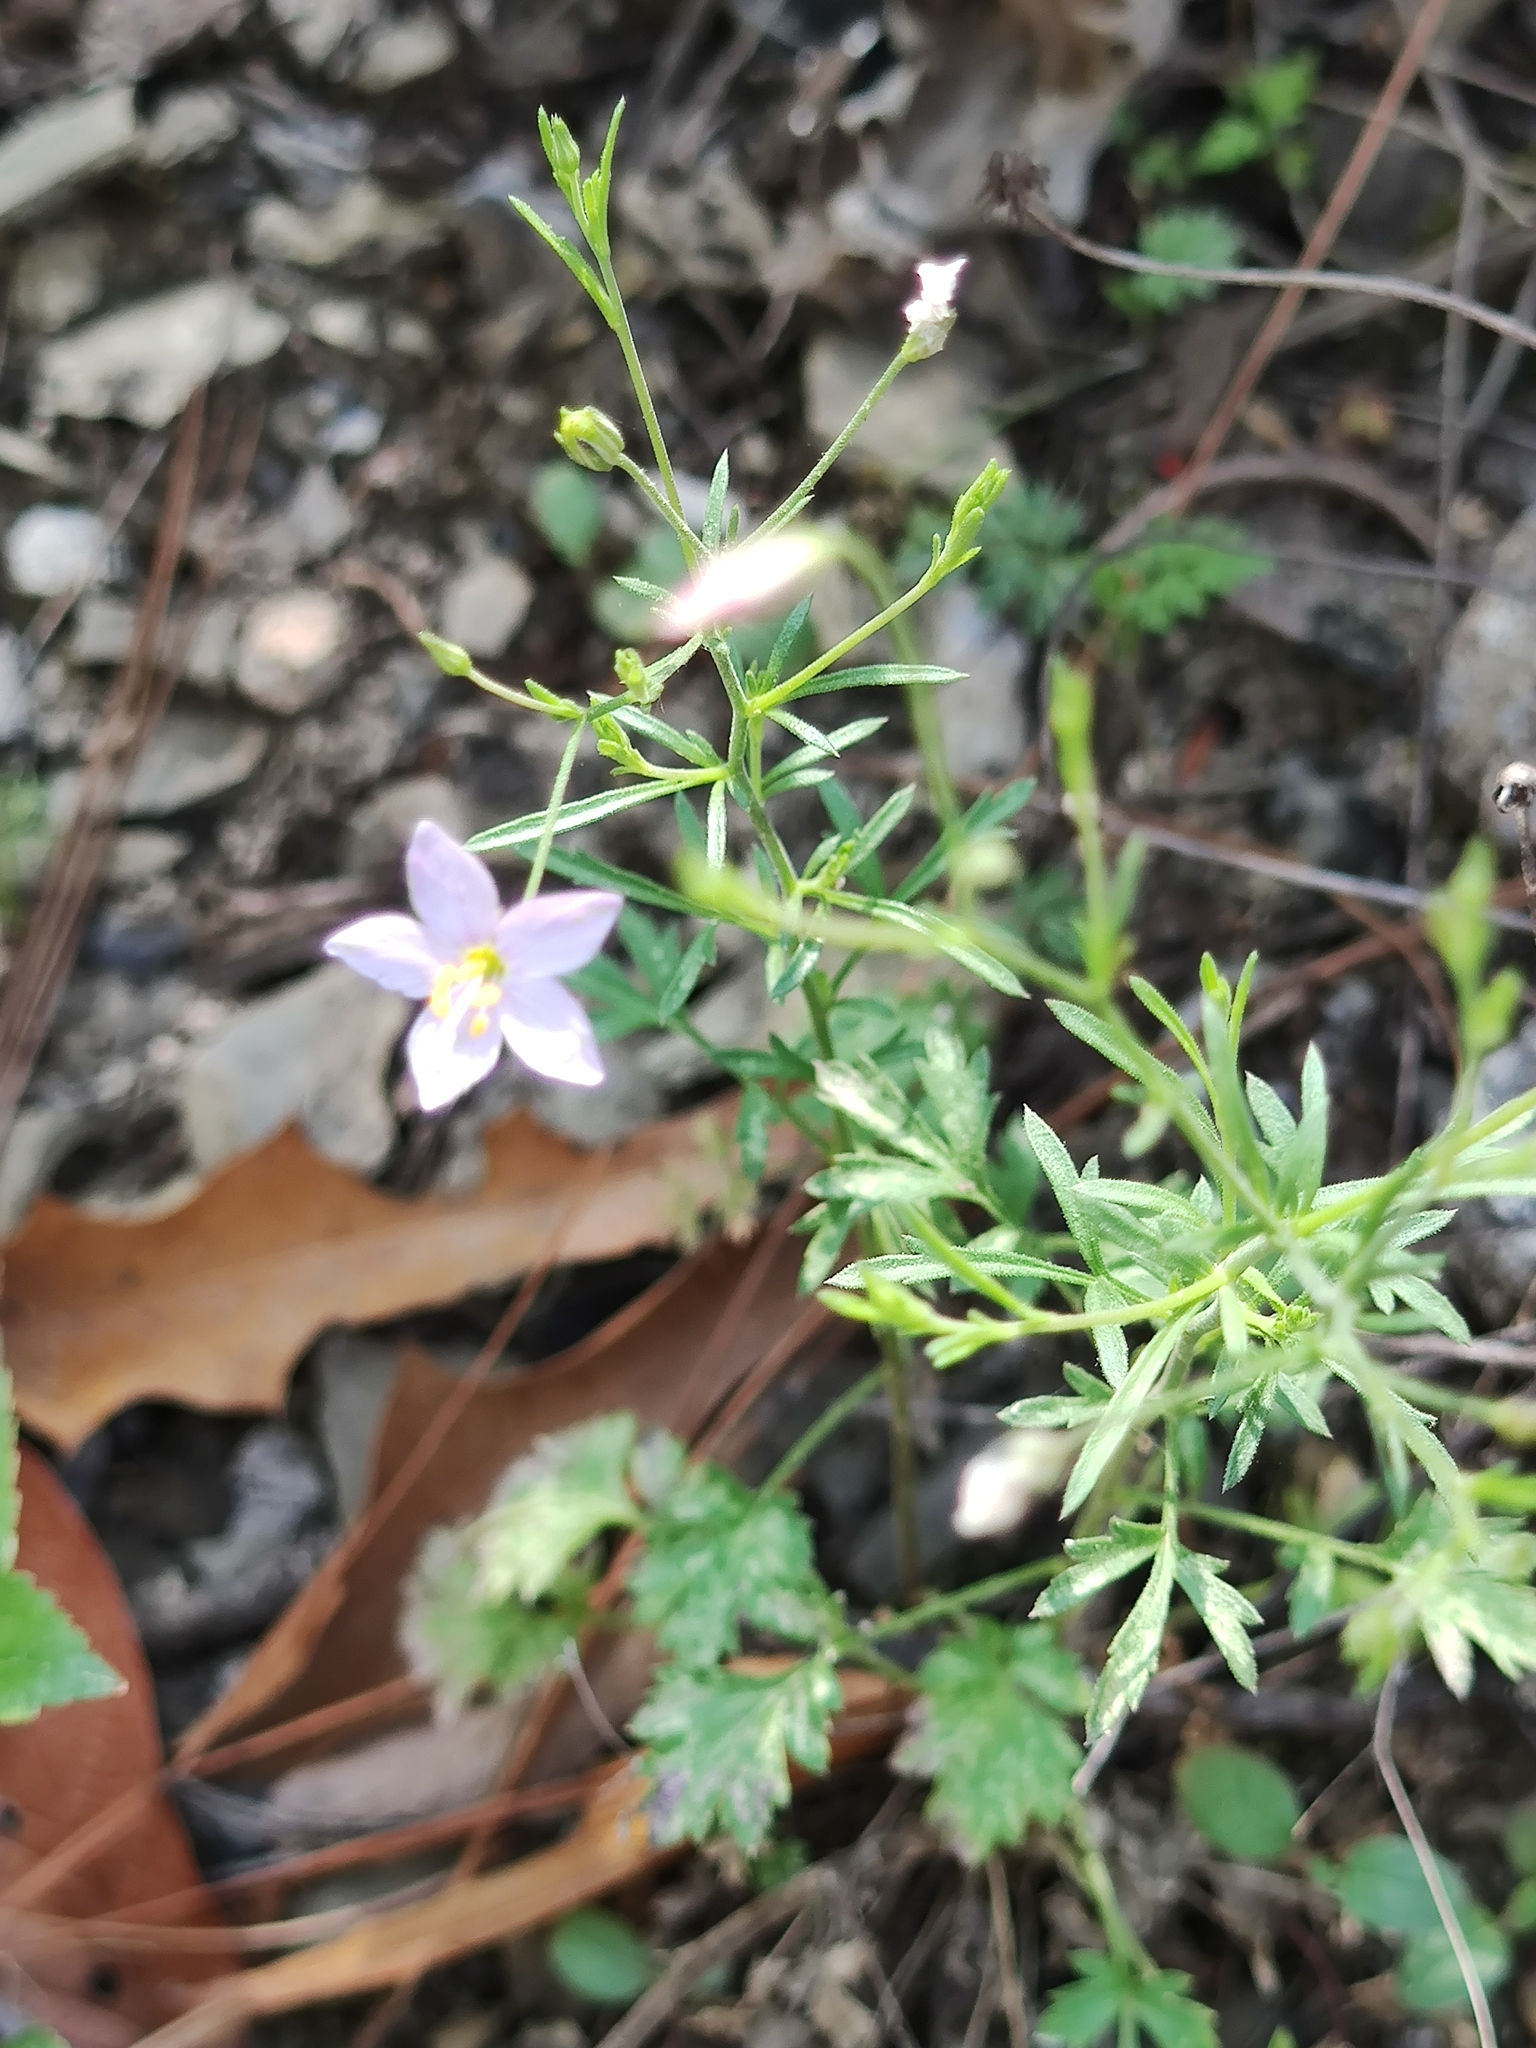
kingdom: Plantae
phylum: Tracheophyta
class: Magnoliopsida
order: Ericales
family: Polemoniaceae
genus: Giliastrum
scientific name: Giliastrum incisum
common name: Splitleaf gilia
